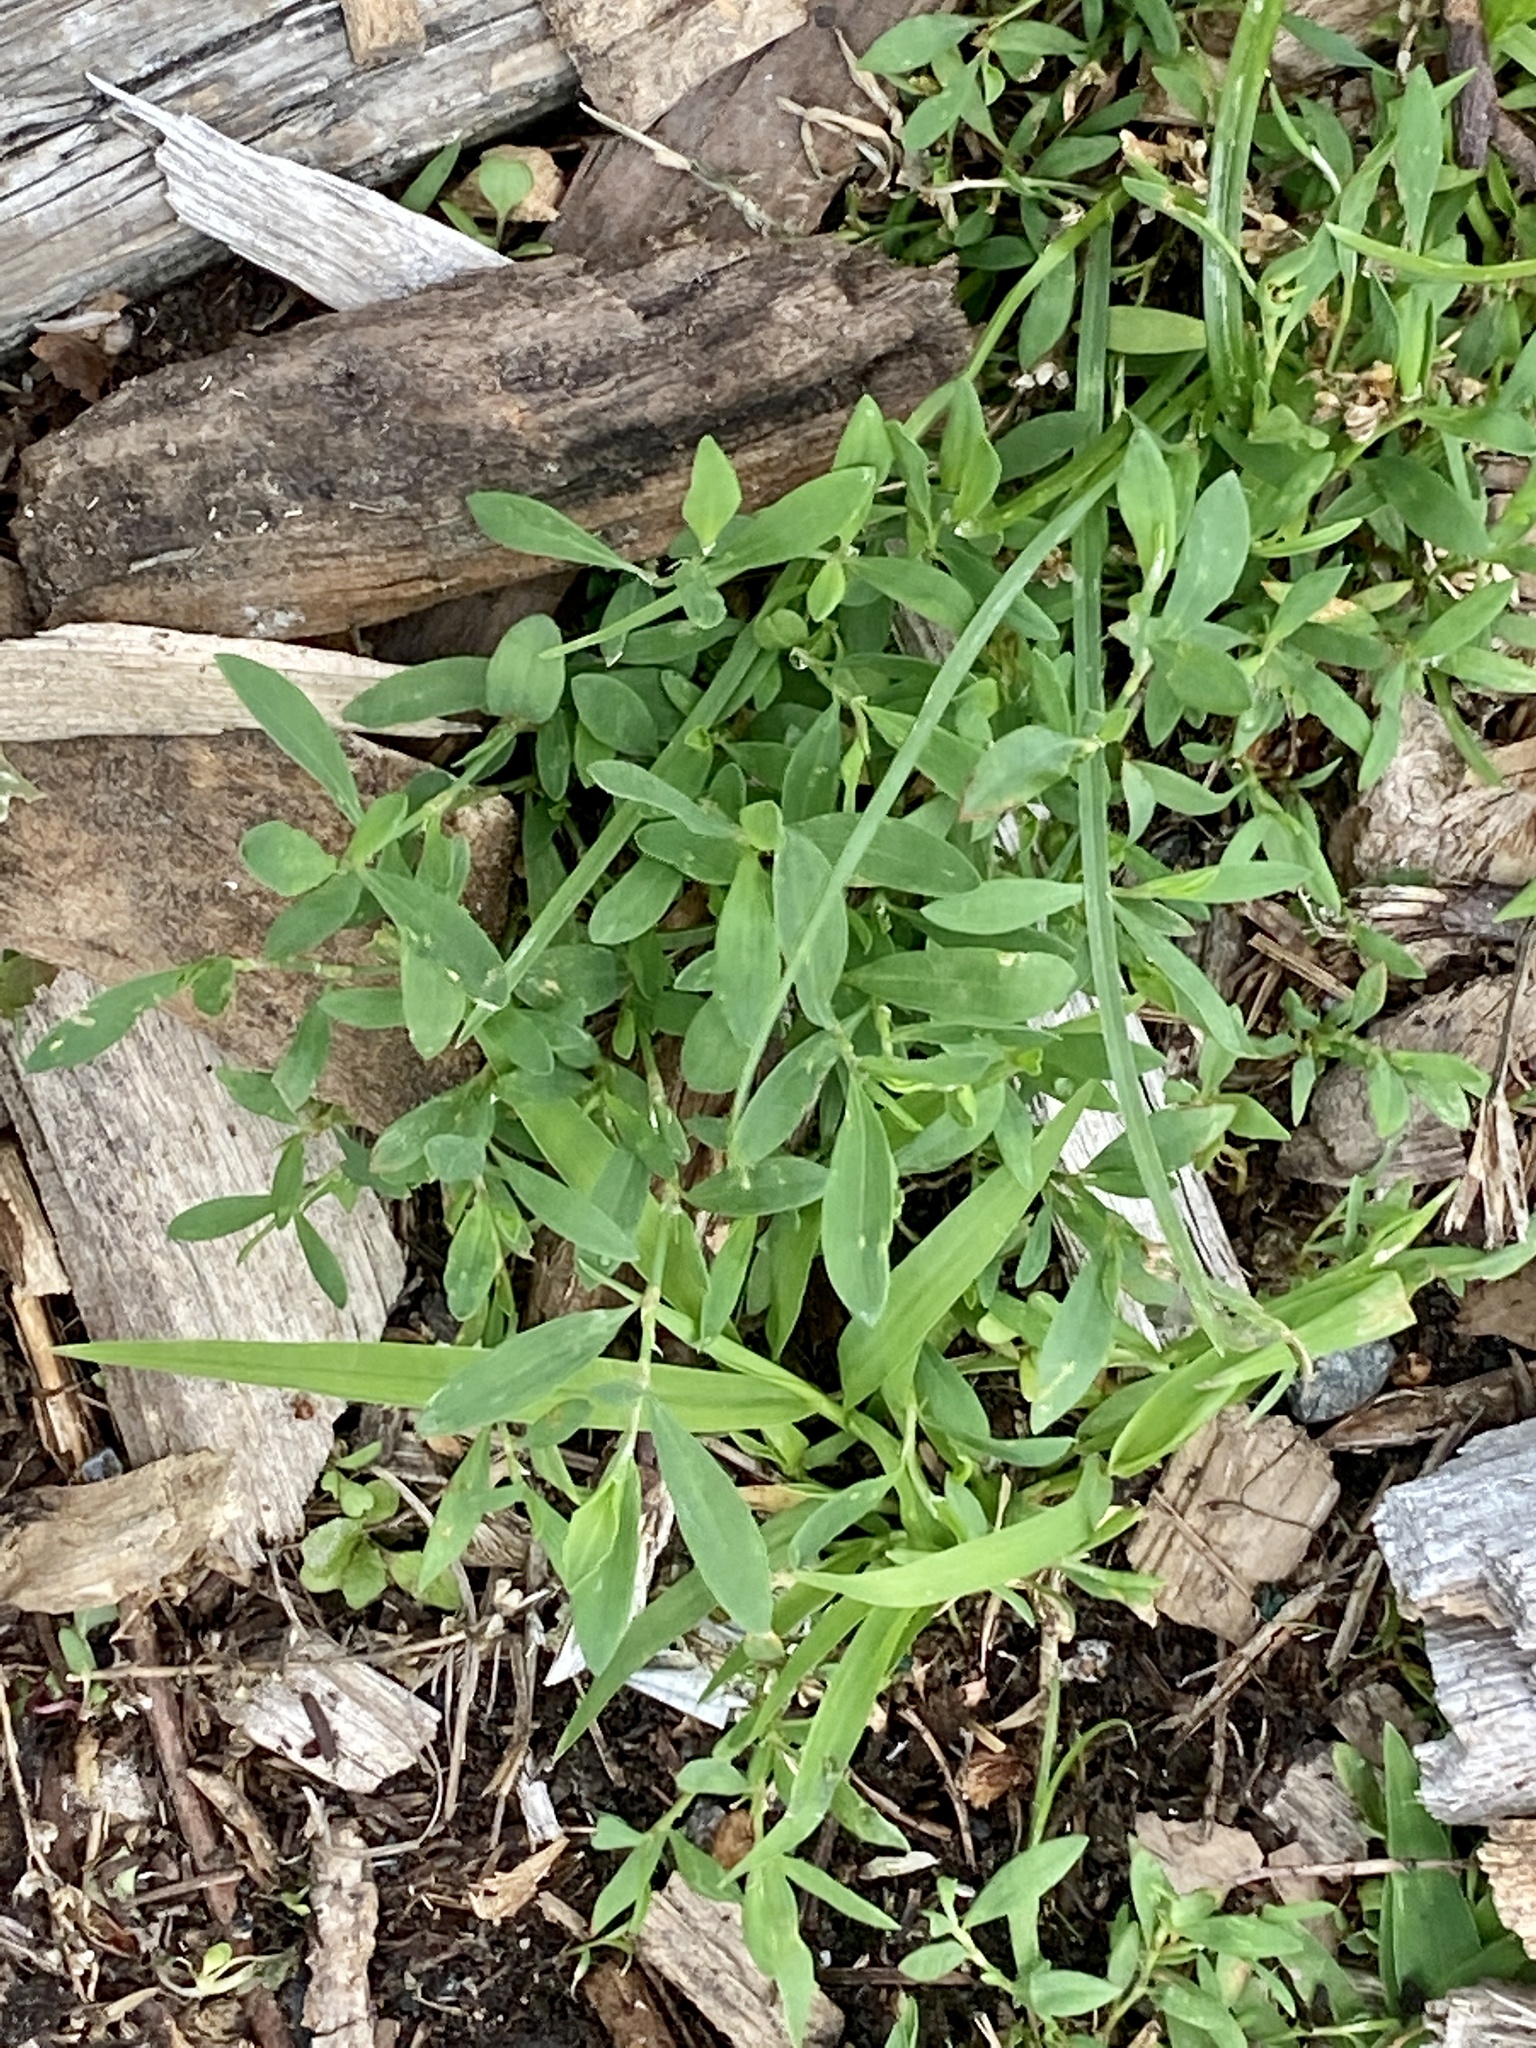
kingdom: Plantae
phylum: Tracheophyta
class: Magnoliopsida
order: Caryophyllales
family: Polygonaceae
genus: Polygonum
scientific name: Polygonum aviculare
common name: Prostrate knotweed
